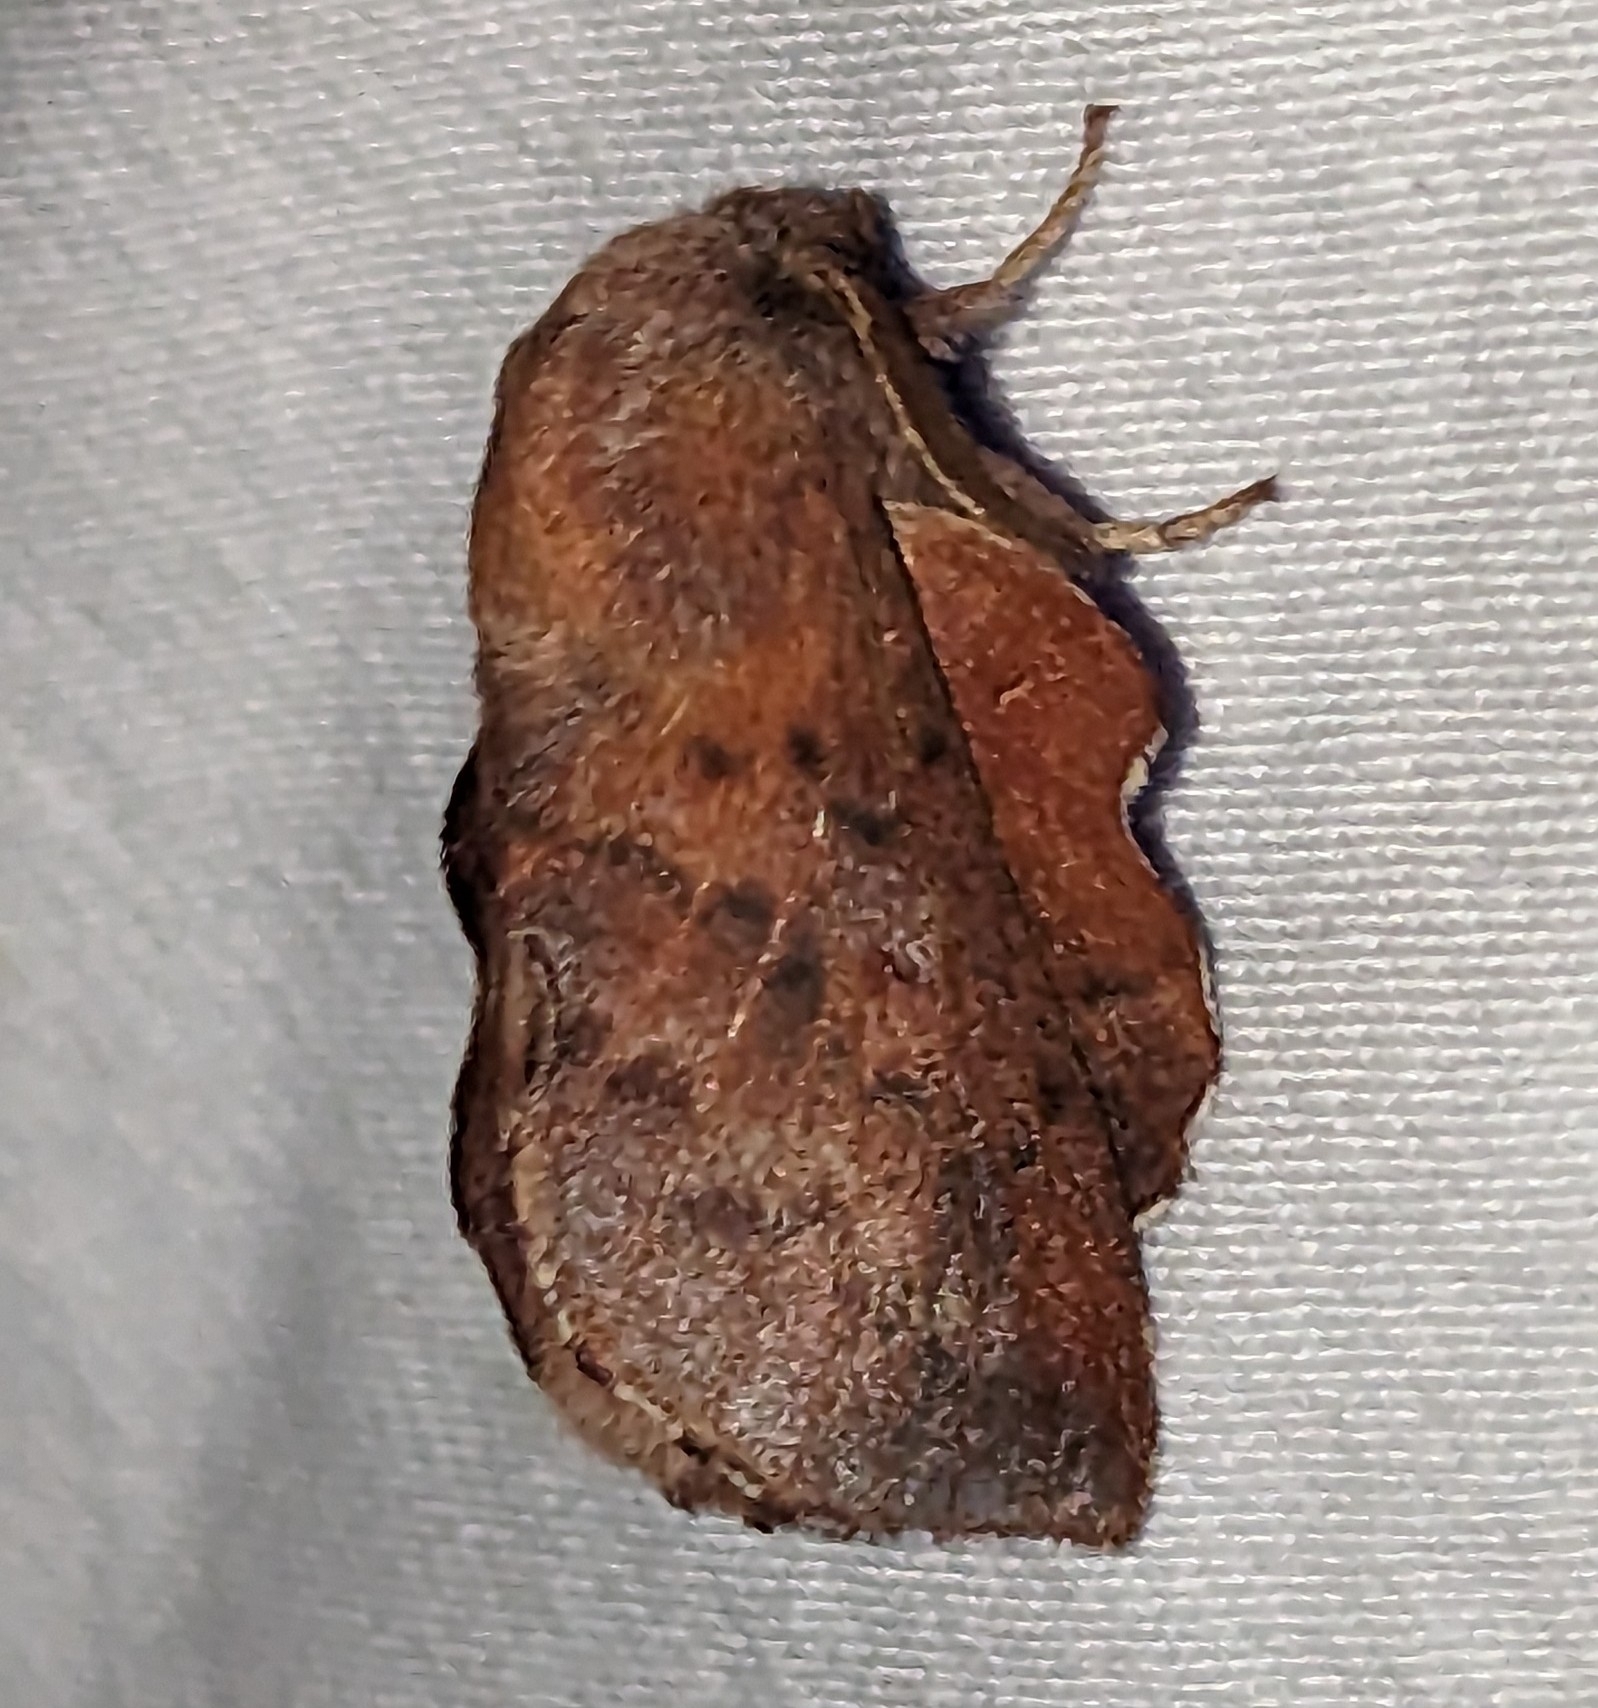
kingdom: Animalia
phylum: Arthropoda
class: Insecta
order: Lepidoptera
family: Lasiocampidae
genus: Phyllodesma
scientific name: Phyllodesma americana
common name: American lappet moth
